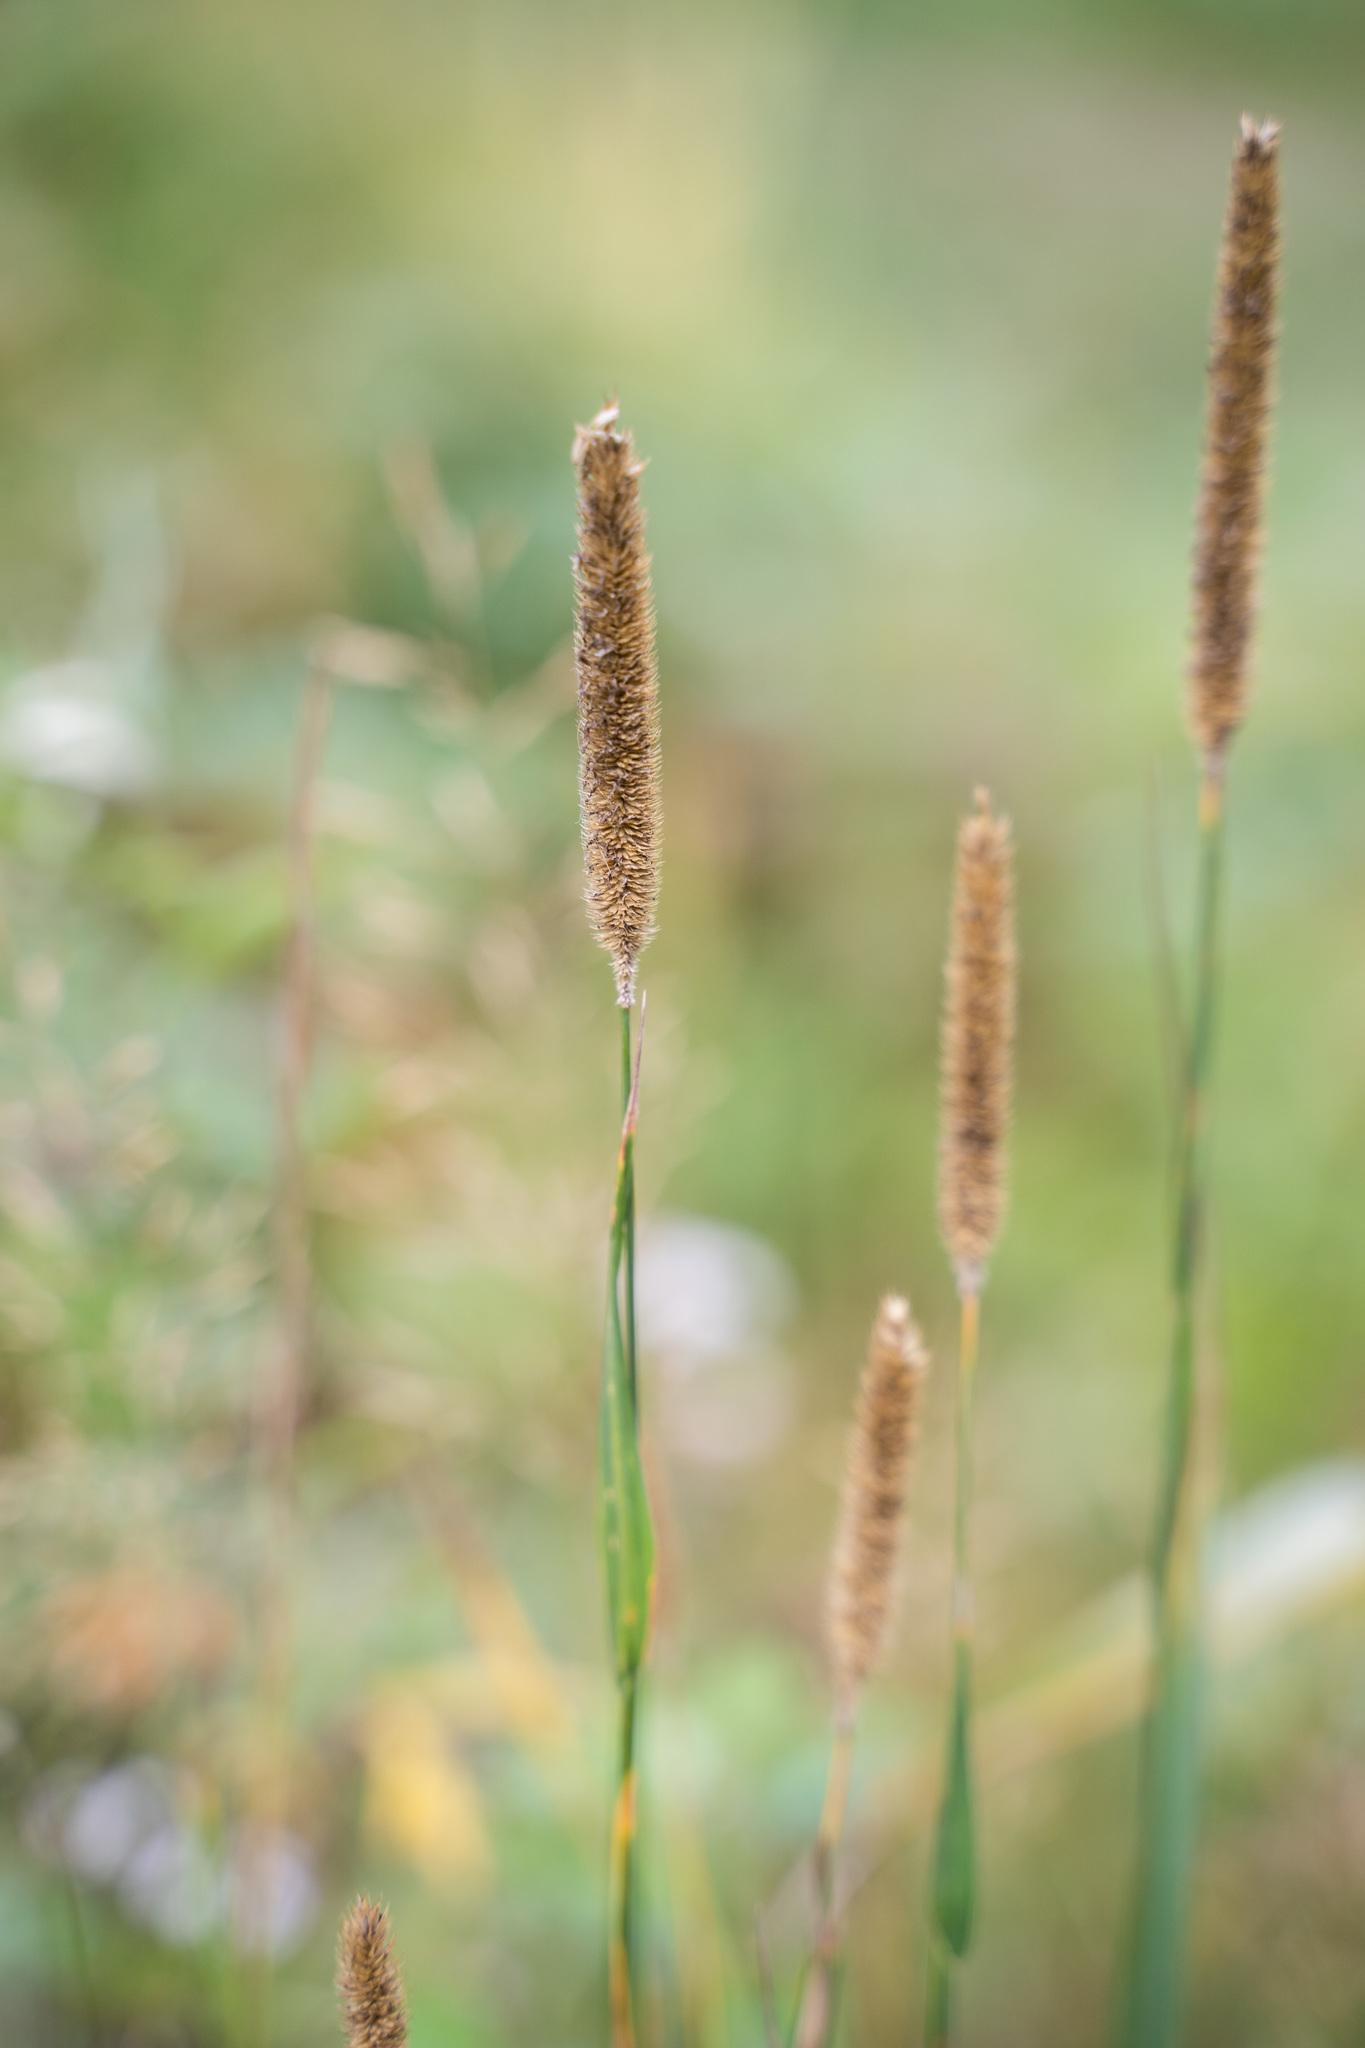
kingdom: Plantae
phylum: Tracheophyta
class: Liliopsida
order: Poales
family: Poaceae
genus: Phleum
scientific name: Phleum pratense
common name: Timothy grass
